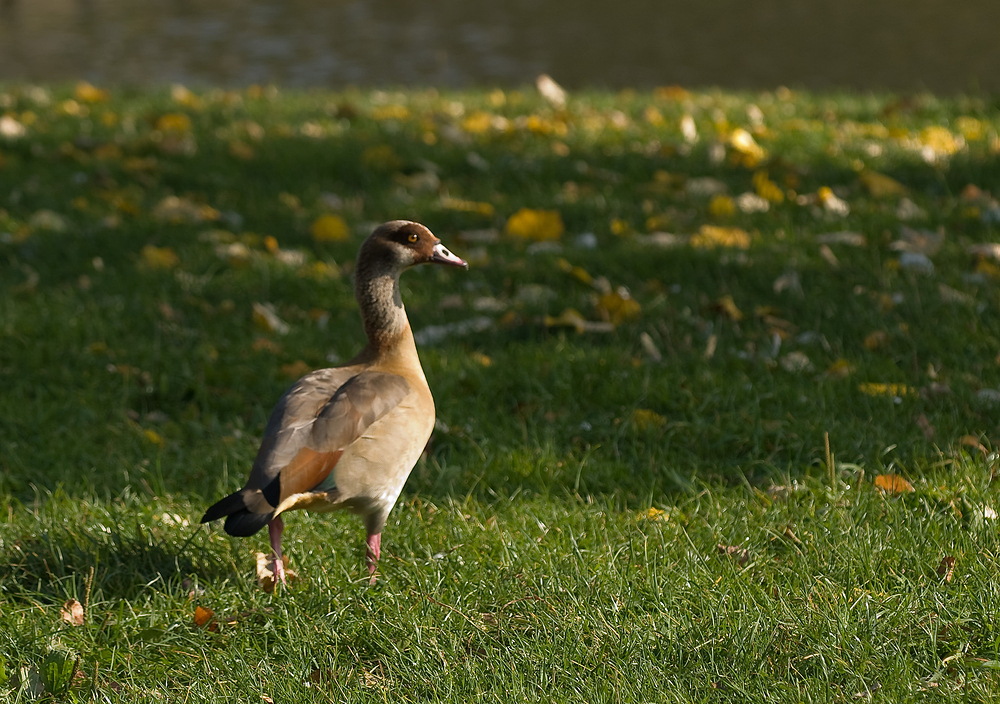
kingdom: Animalia
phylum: Chordata
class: Aves
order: Anseriformes
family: Anatidae
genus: Alopochen
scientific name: Alopochen aegyptiaca
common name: Egyptian goose
